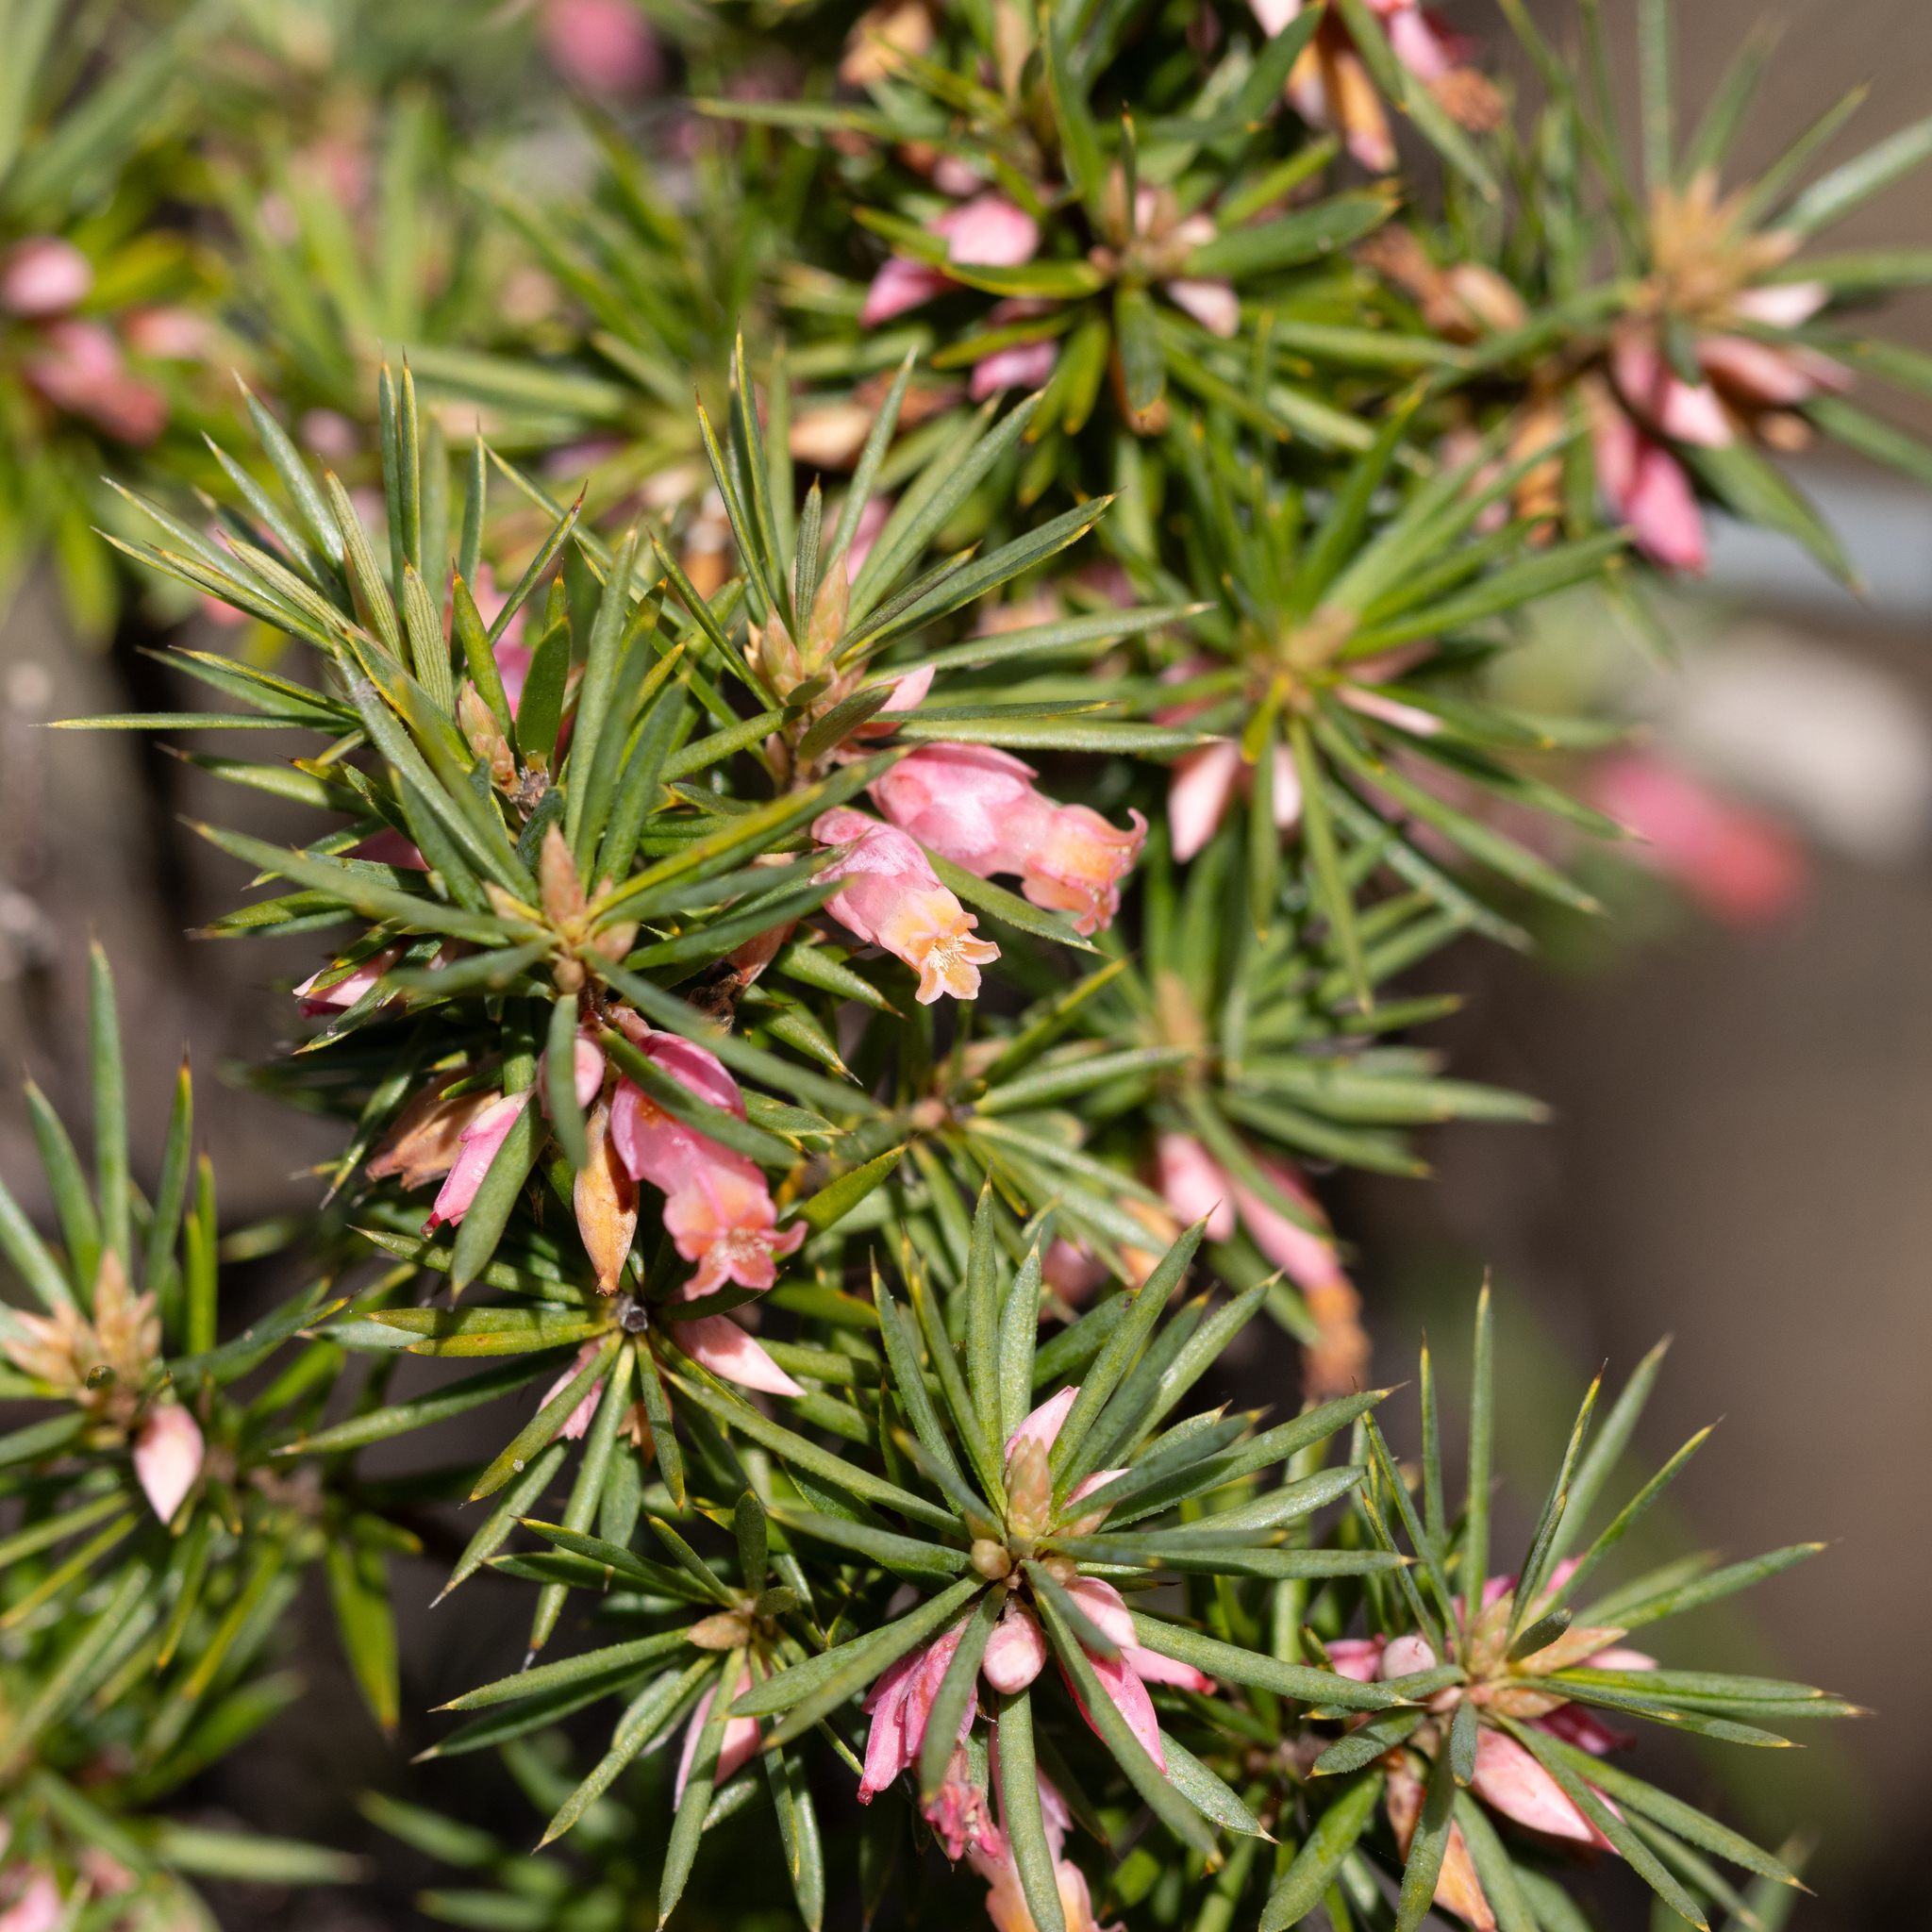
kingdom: Plantae
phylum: Tracheophyta
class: Magnoliopsida
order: Ericales
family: Ericaceae
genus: Brachyloma
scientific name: Brachyloma ericoides
